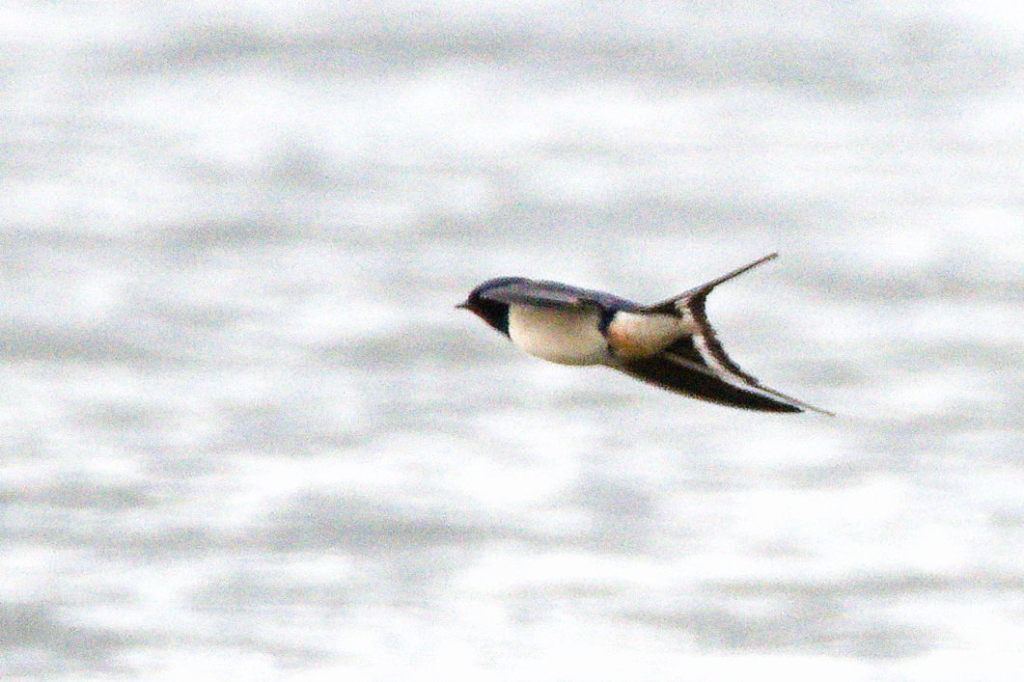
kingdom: Animalia
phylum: Chordata
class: Aves
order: Passeriformes
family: Hirundinidae
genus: Hirundo
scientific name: Hirundo rustica
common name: Barn swallow
